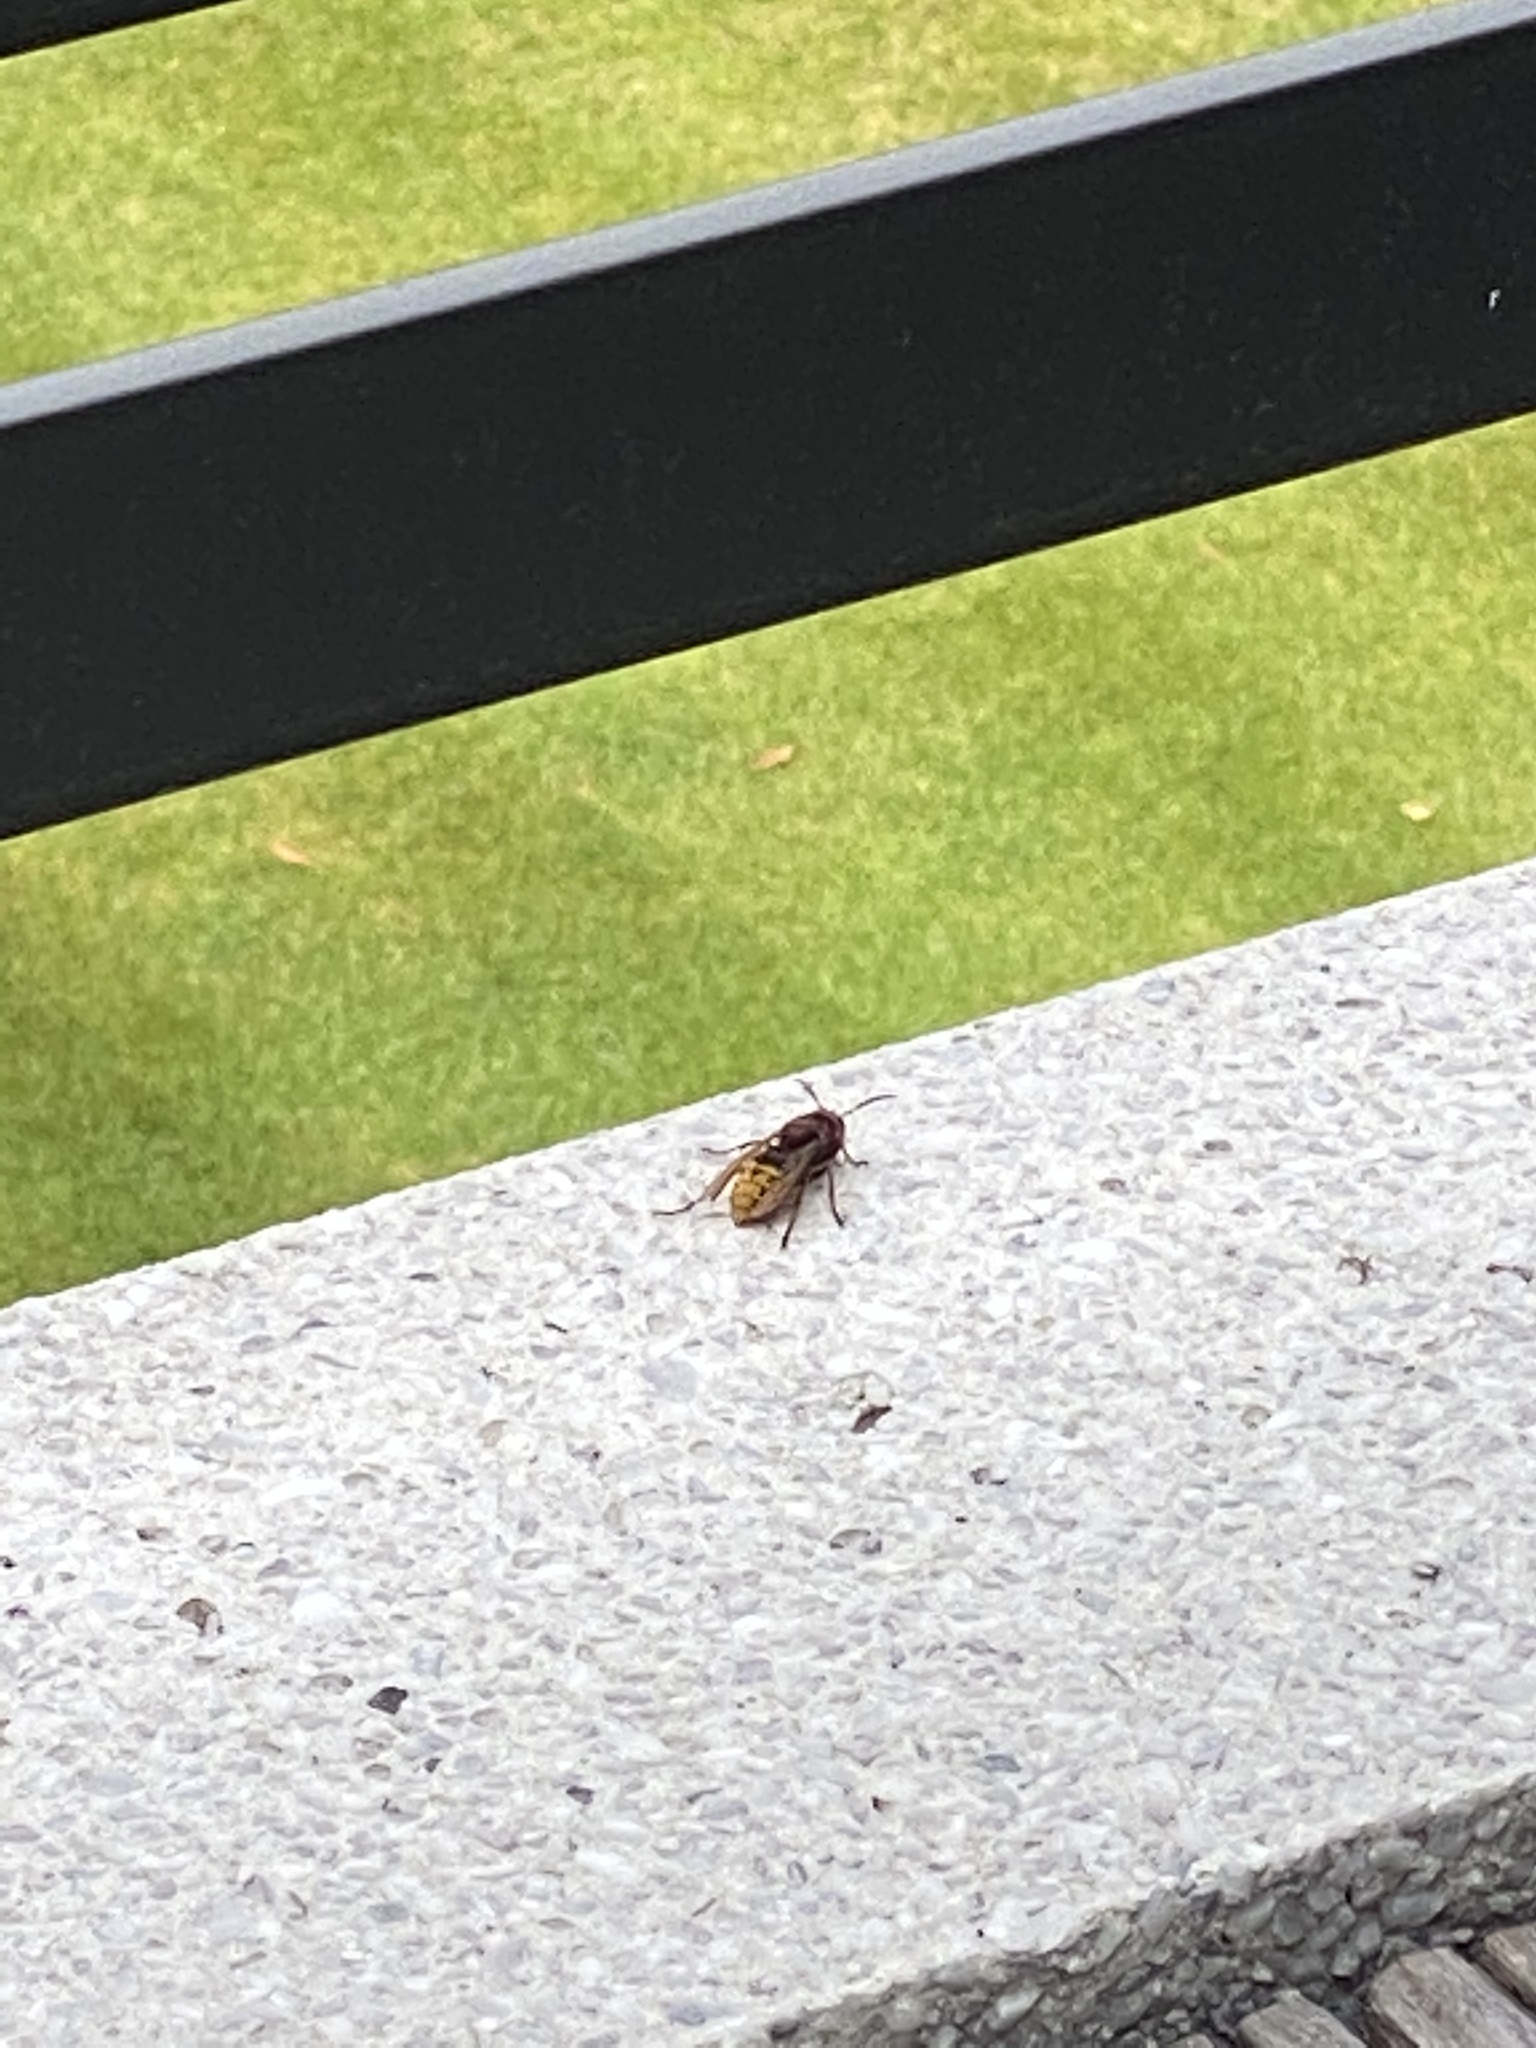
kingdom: Animalia
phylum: Arthropoda
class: Insecta
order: Hymenoptera
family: Vespidae
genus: Vespa
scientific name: Vespa crabro
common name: Hornet
